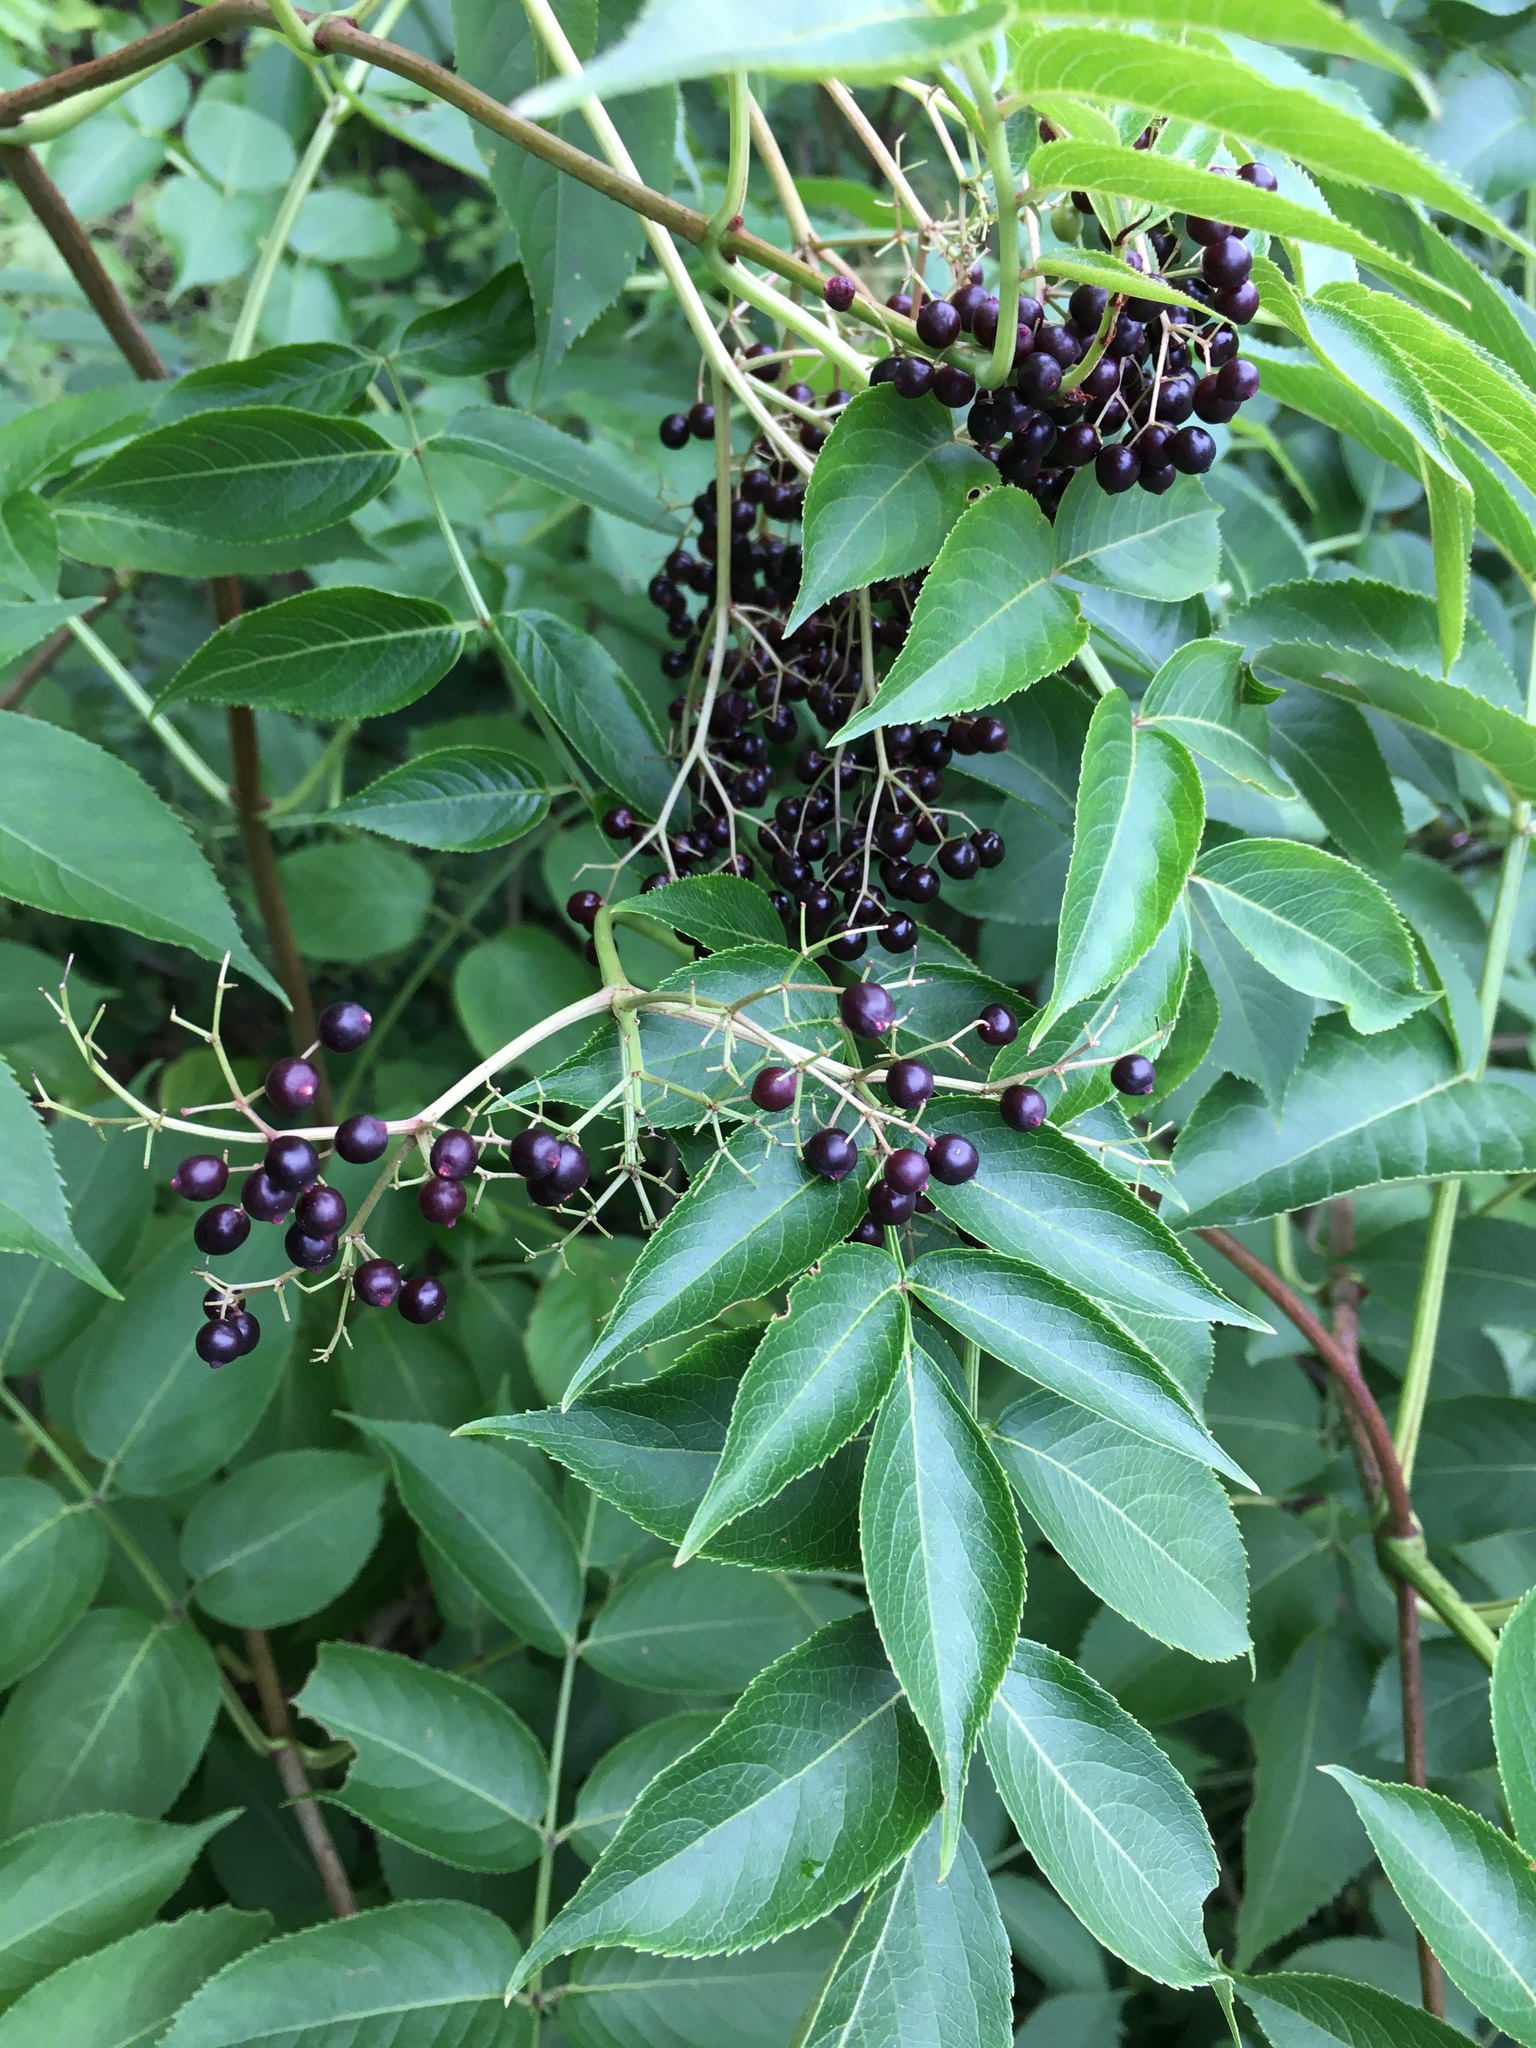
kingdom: Plantae
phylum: Tracheophyta
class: Magnoliopsida
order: Dipsacales
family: Viburnaceae
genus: Sambucus
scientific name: Sambucus canadensis
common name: American elder
